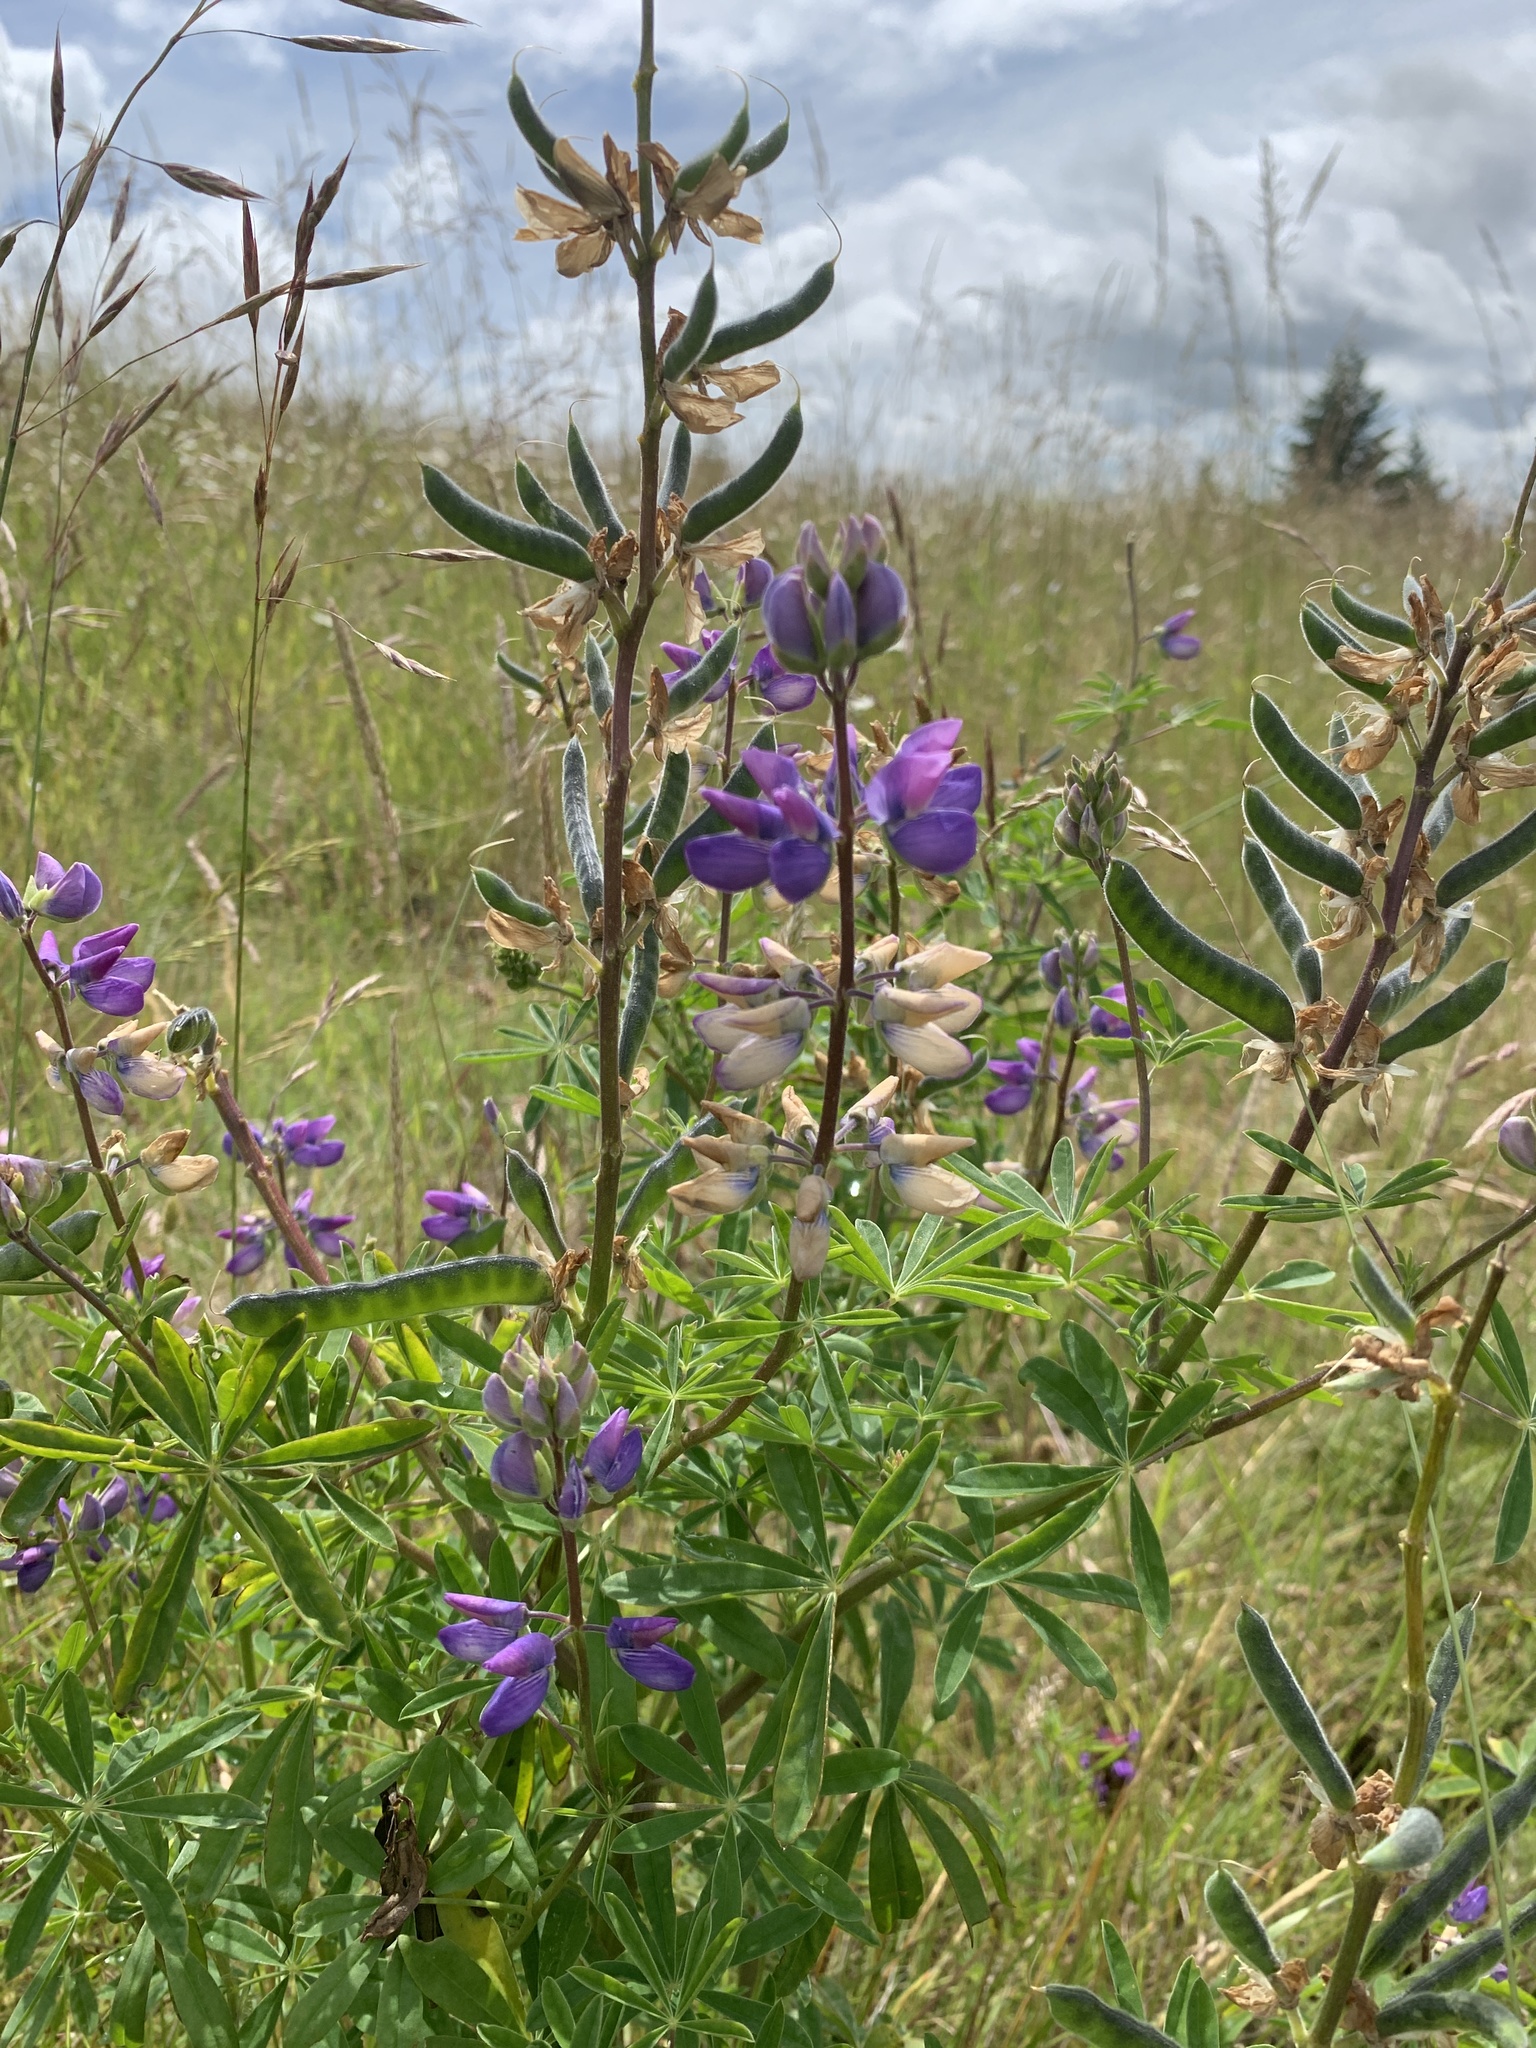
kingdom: Plantae
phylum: Tracheophyta
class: Magnoliopsida
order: Fabales
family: Fabaceae
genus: Lupinus
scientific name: Lupinus rivularis
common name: Riverbank lupine
